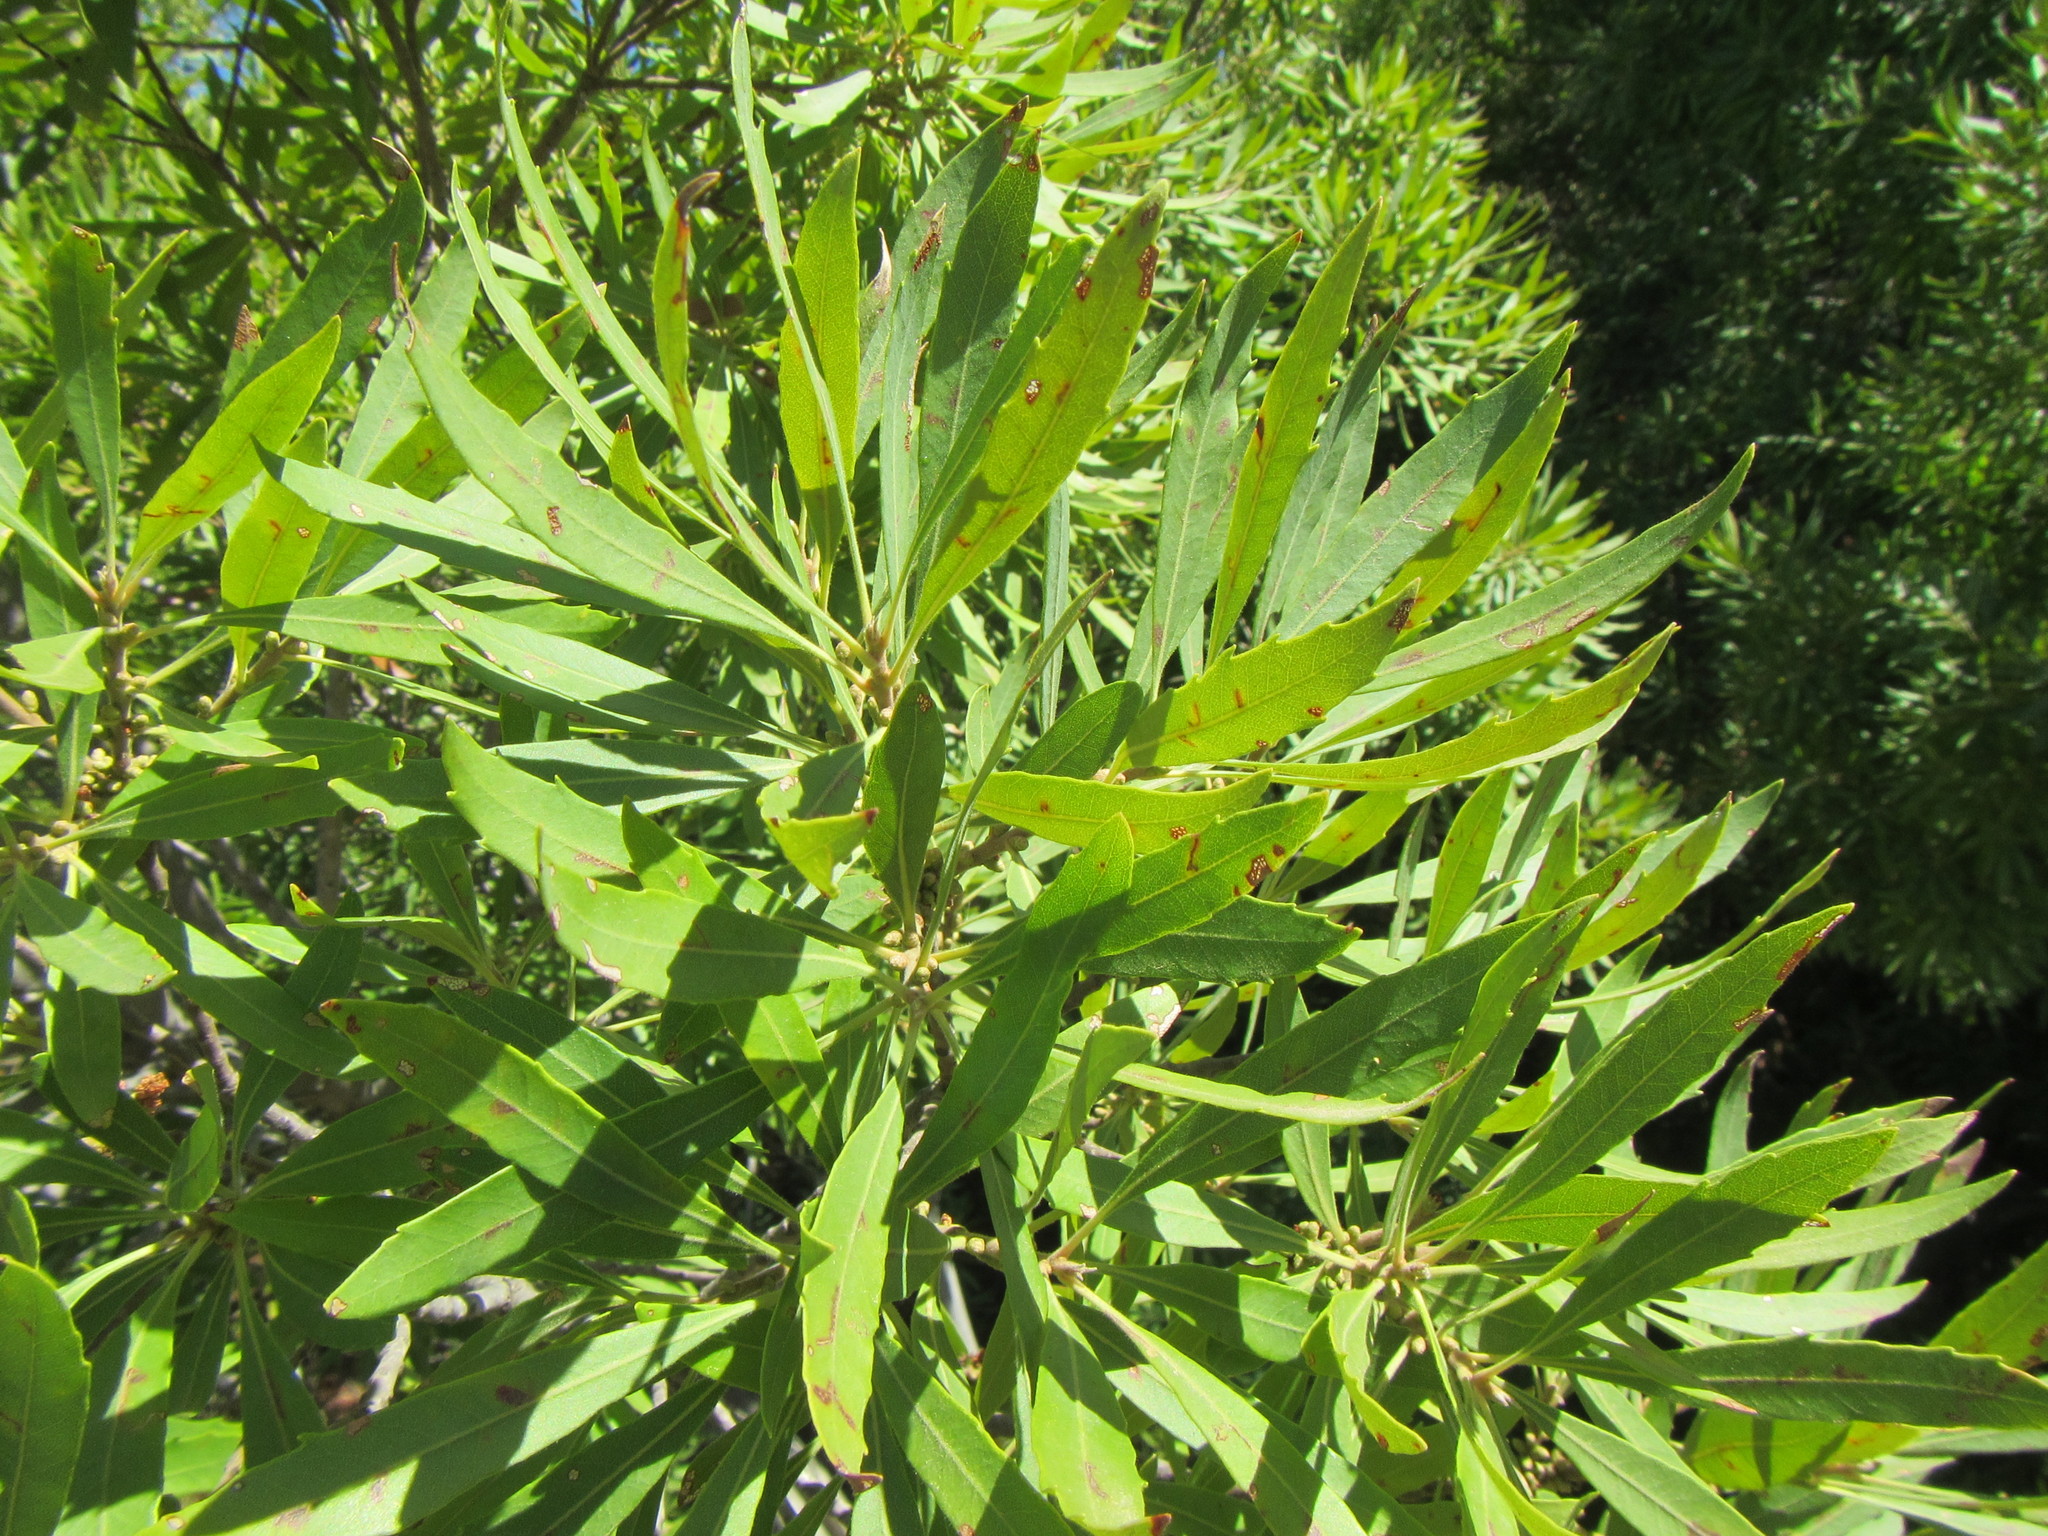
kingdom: Plantae
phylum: Tracheophyta
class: Magnoliopsida
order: Fagales
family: Myricaceae
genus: Morella
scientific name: Morella serrata
